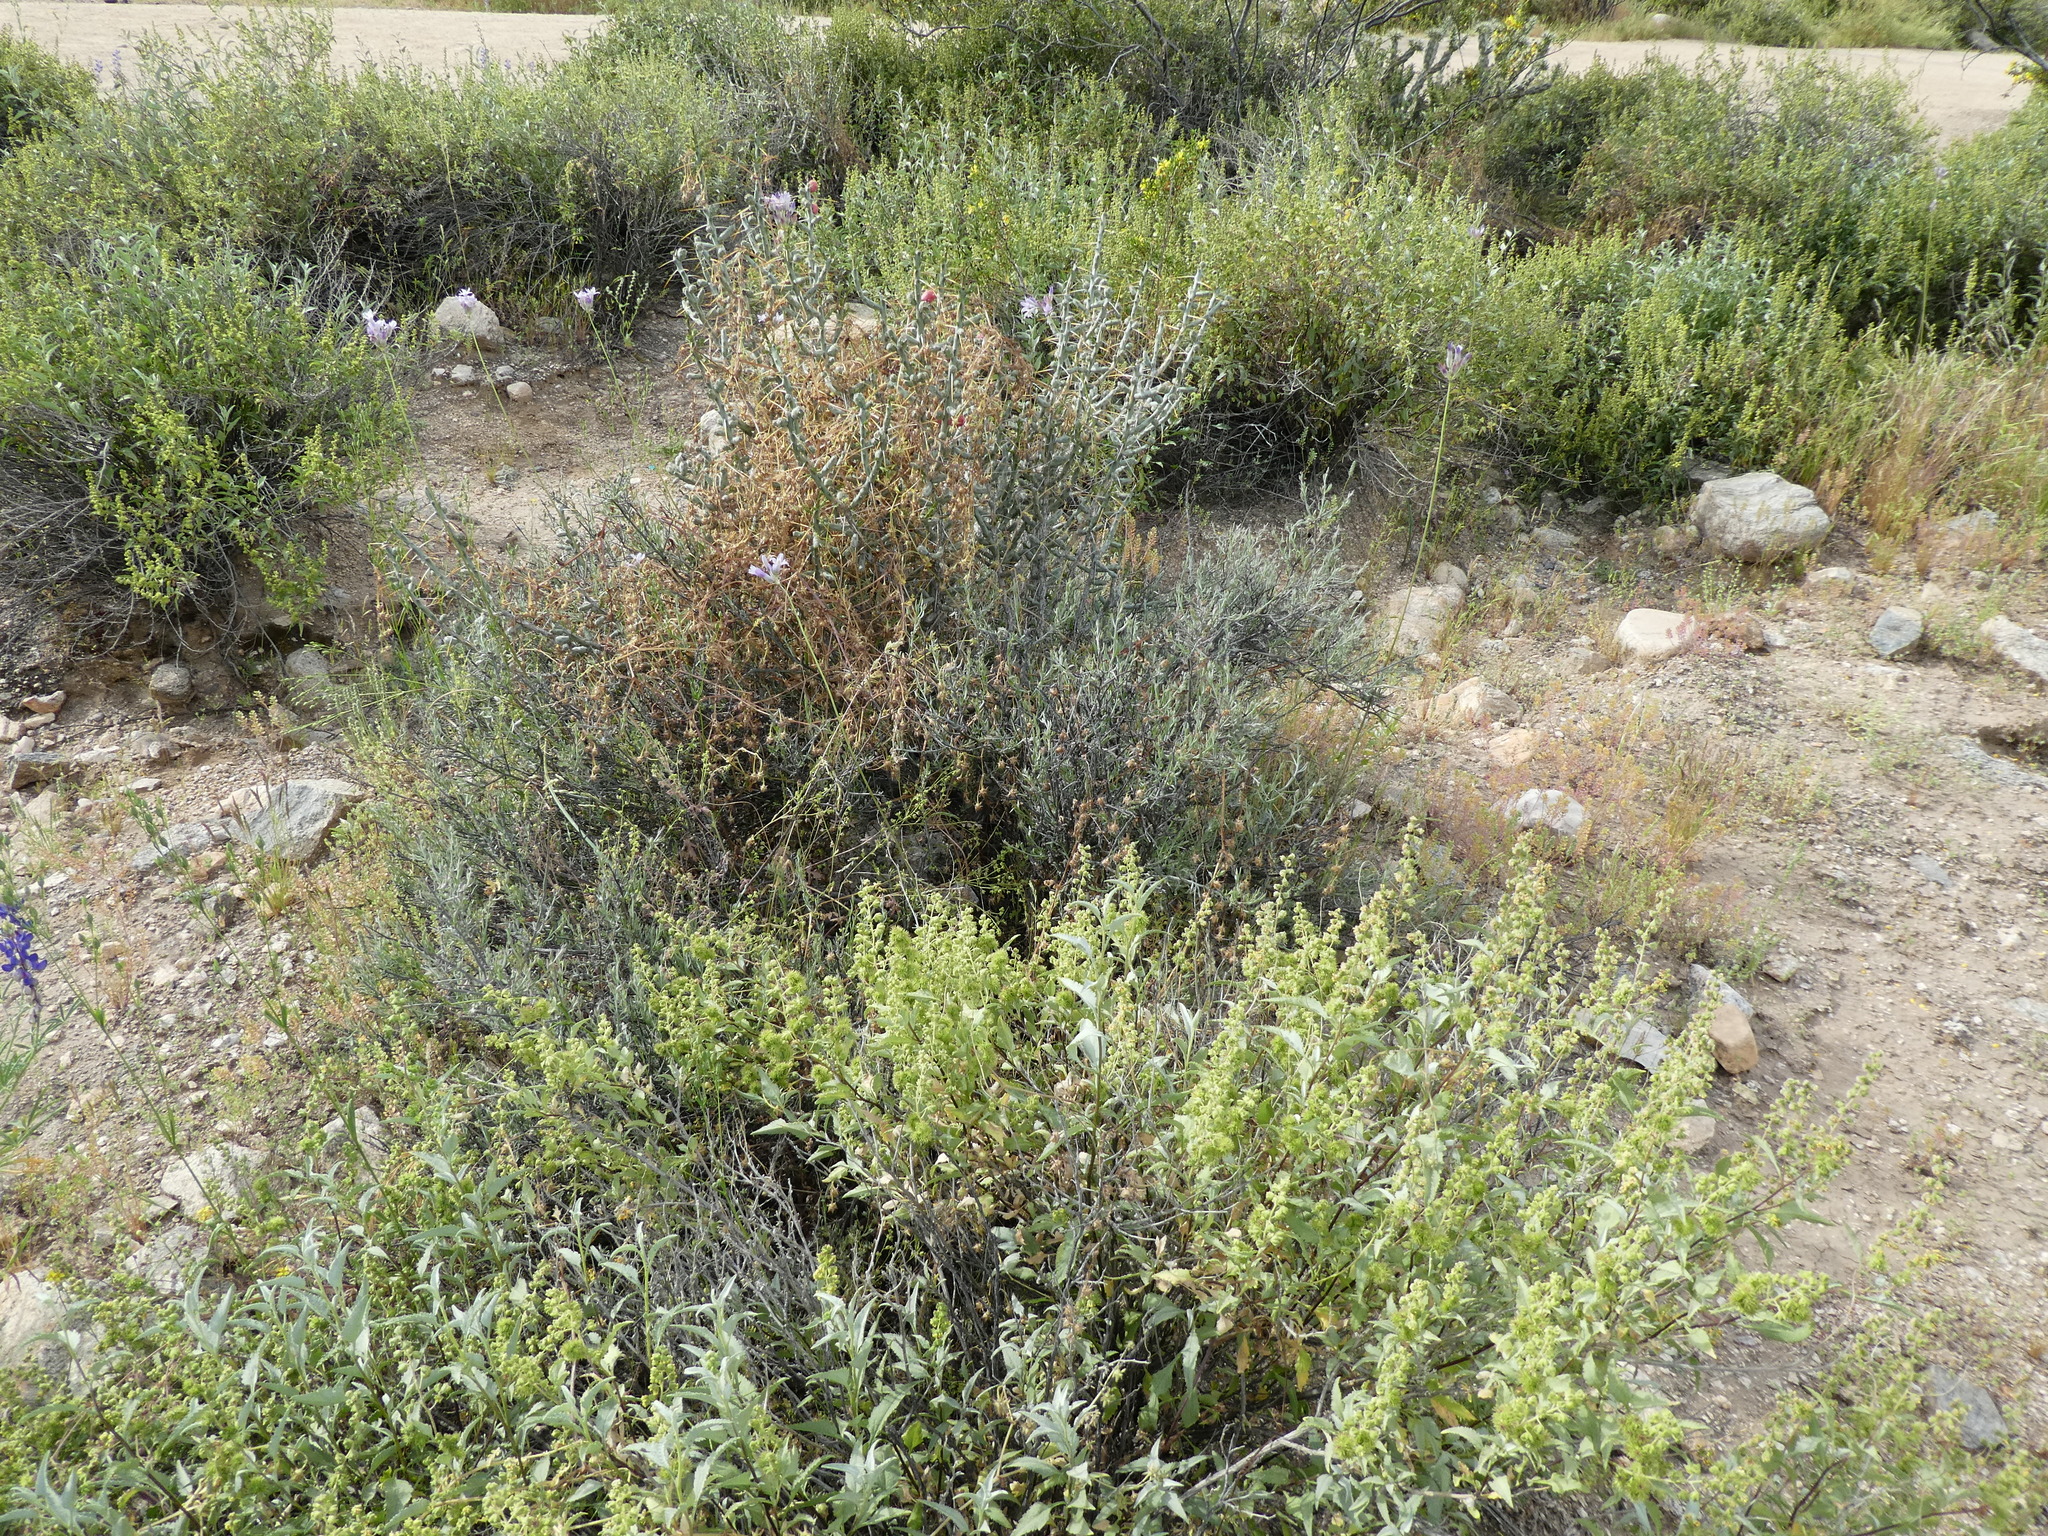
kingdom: Plantae
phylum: Tracheophyta
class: Magnoliopsida
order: Asterales
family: Asteraceae
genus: Ambrosia
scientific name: Ambrosia deltoidea
